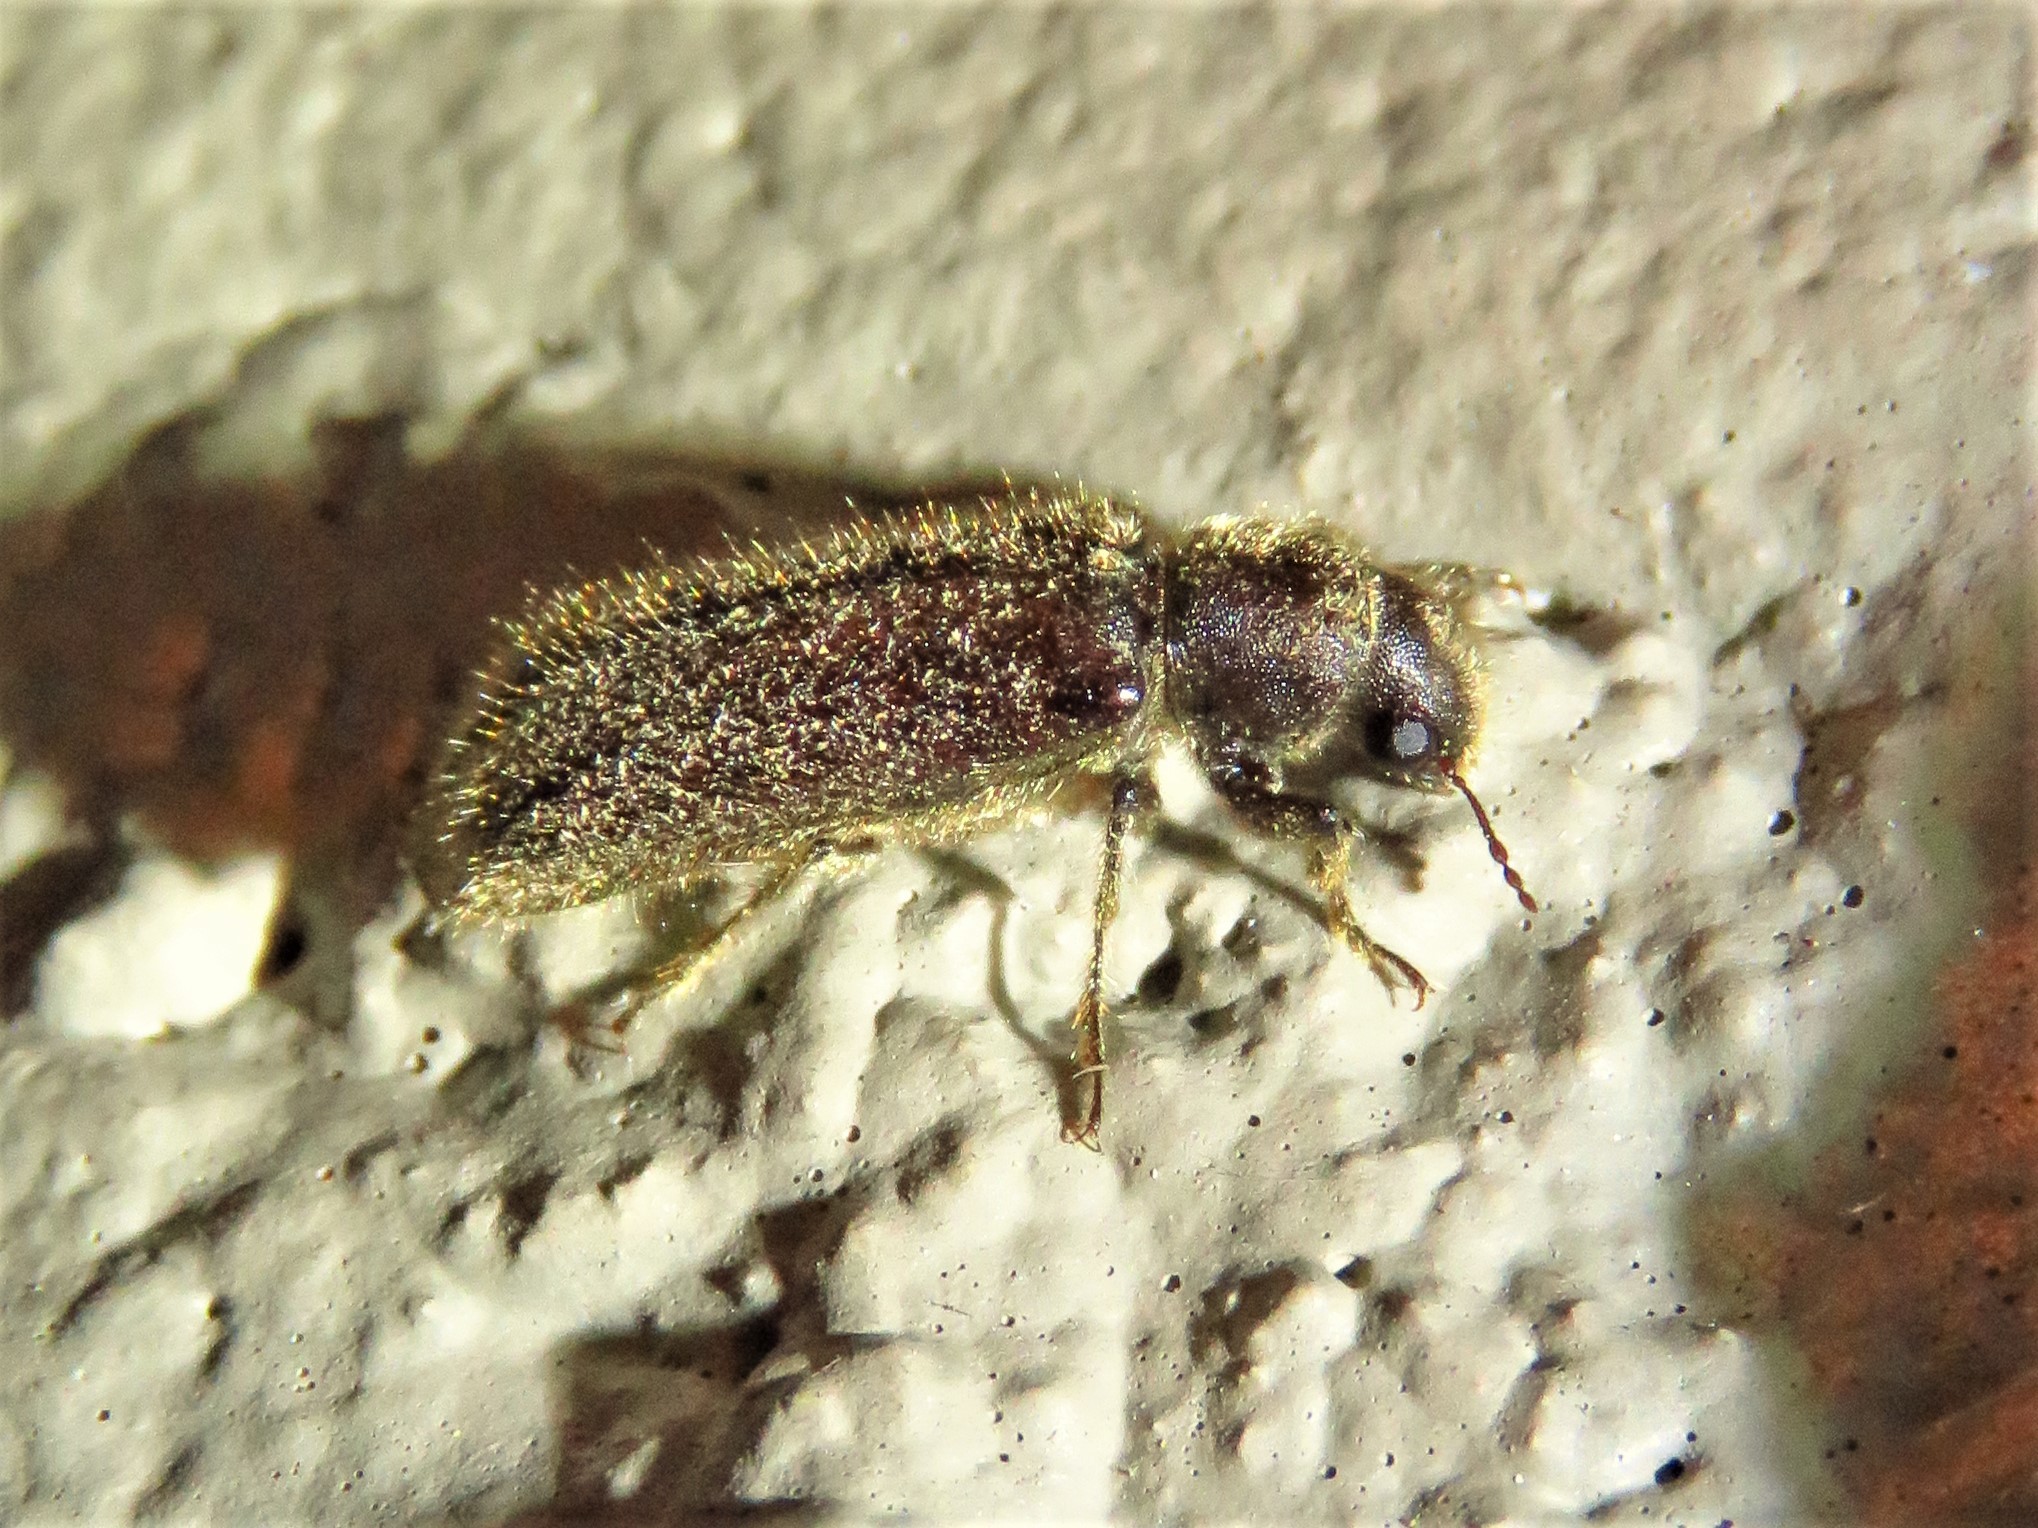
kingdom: Animalia
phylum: Arthropoda
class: Insecta
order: Coleoptera
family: Bostrichidae
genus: Melalgus
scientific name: Melalgus plicatus
